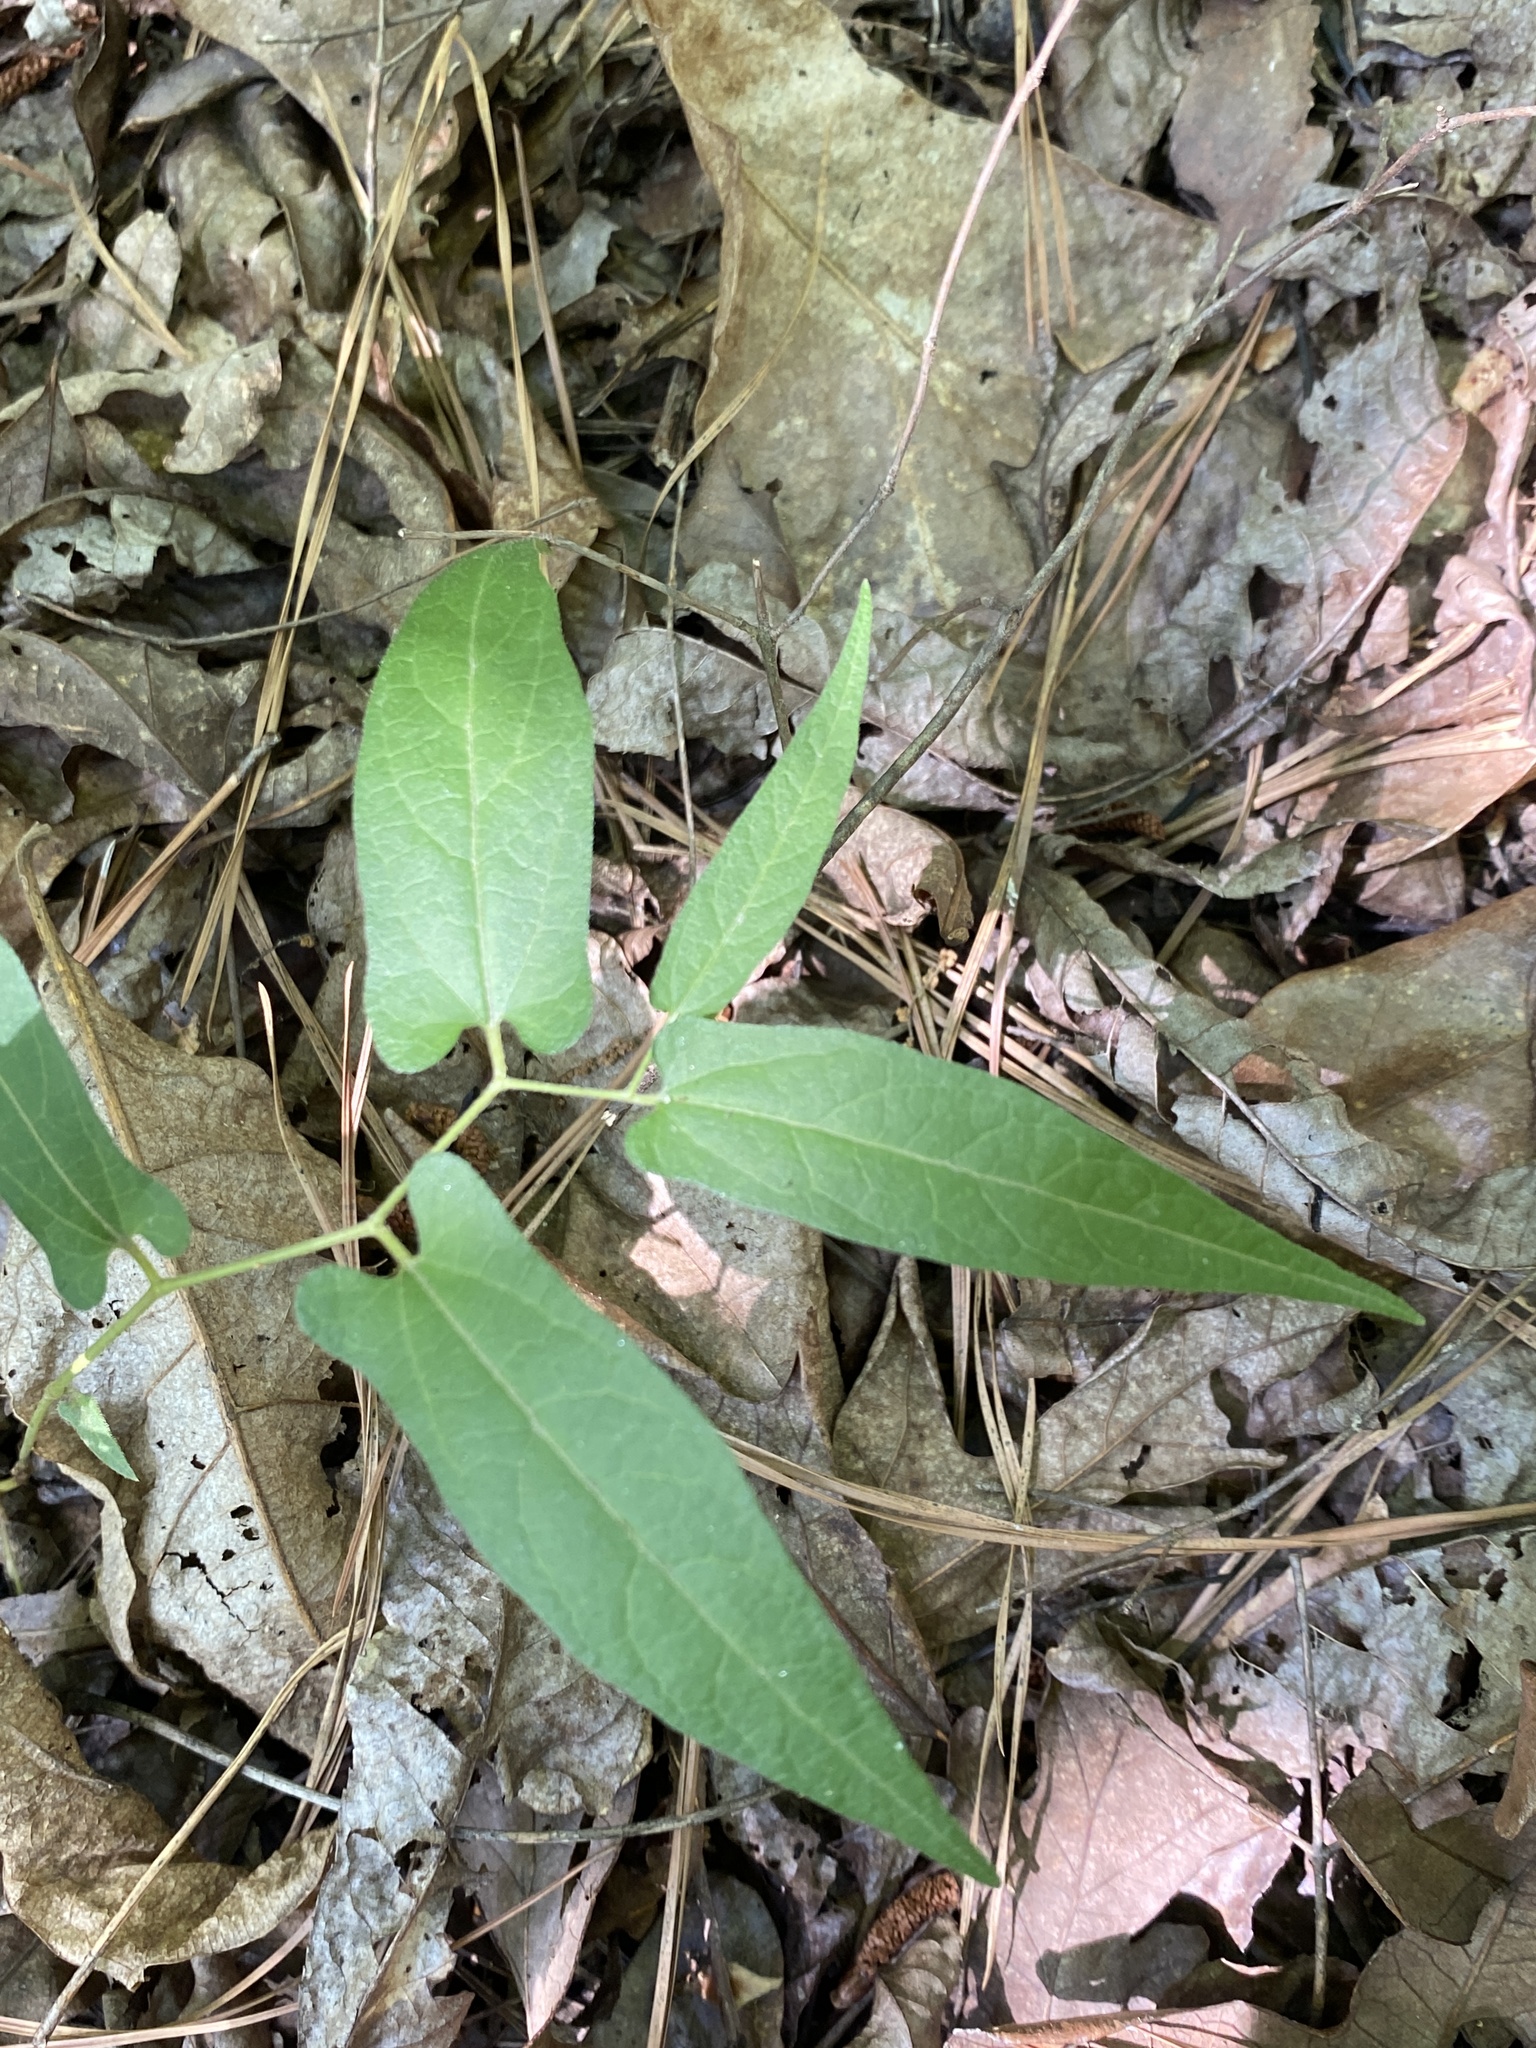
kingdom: Plantae
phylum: Tracheophyta
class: Magnoliopsida
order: Piperales
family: Aristolochiaceae
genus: Endodeca
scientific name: Endodeca serpentaria
